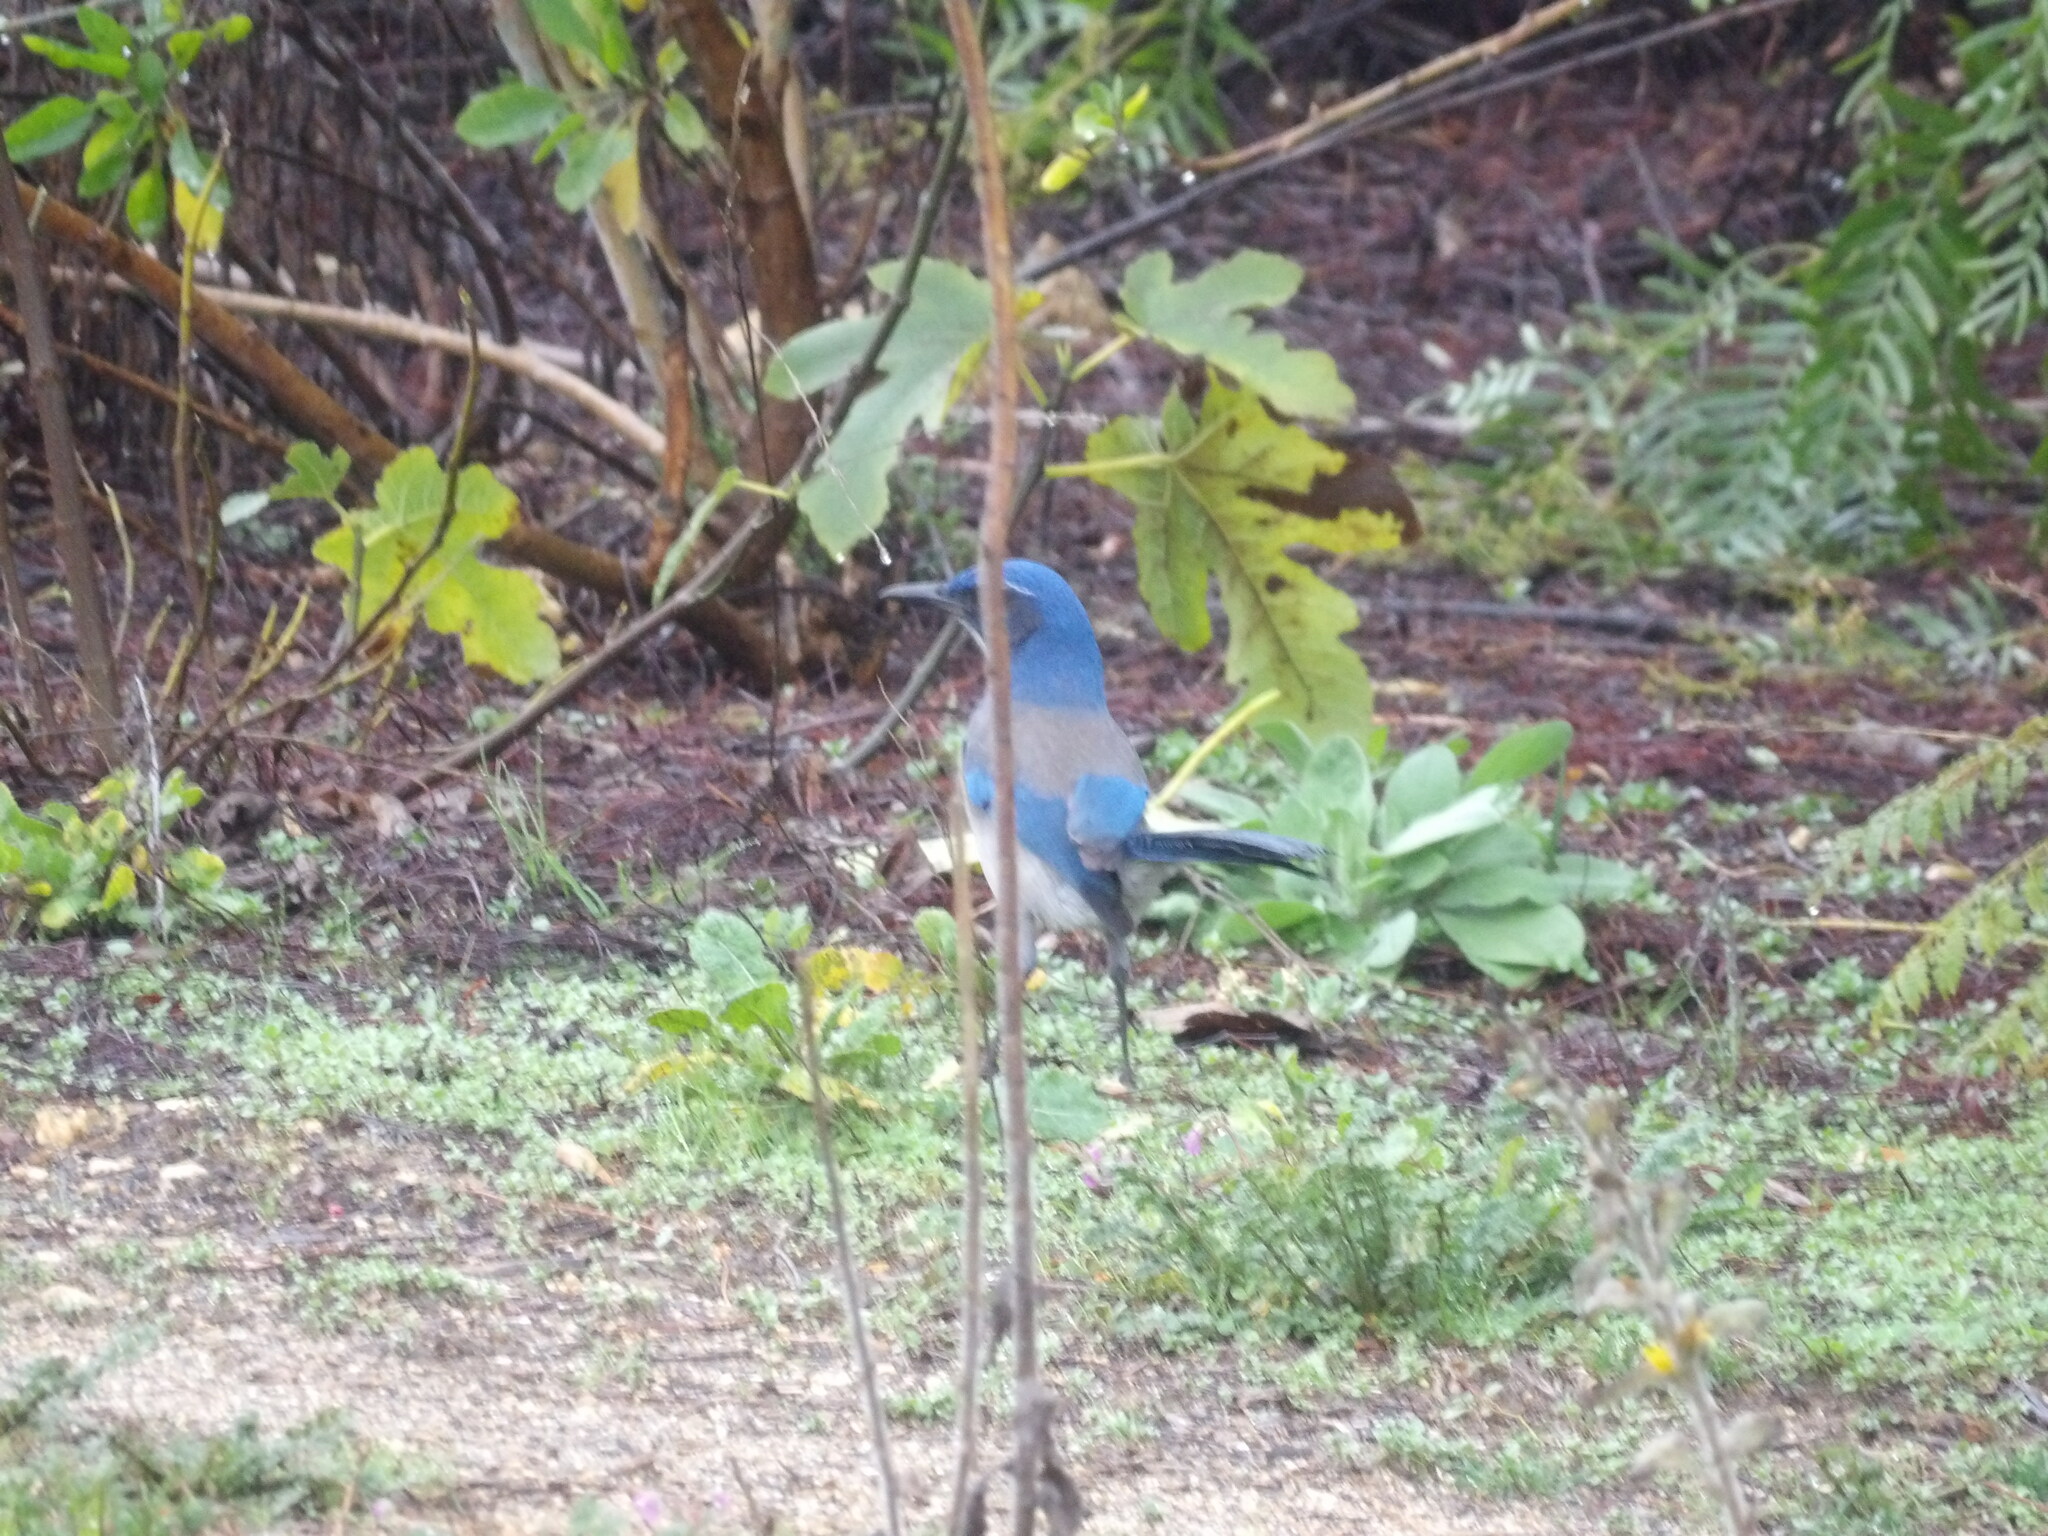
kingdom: Animalia
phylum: Chordata
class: Aves
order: Passeriformes
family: Corvidae
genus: Aphelocoma
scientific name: Aphelocoma californica
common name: California scrub-jay
